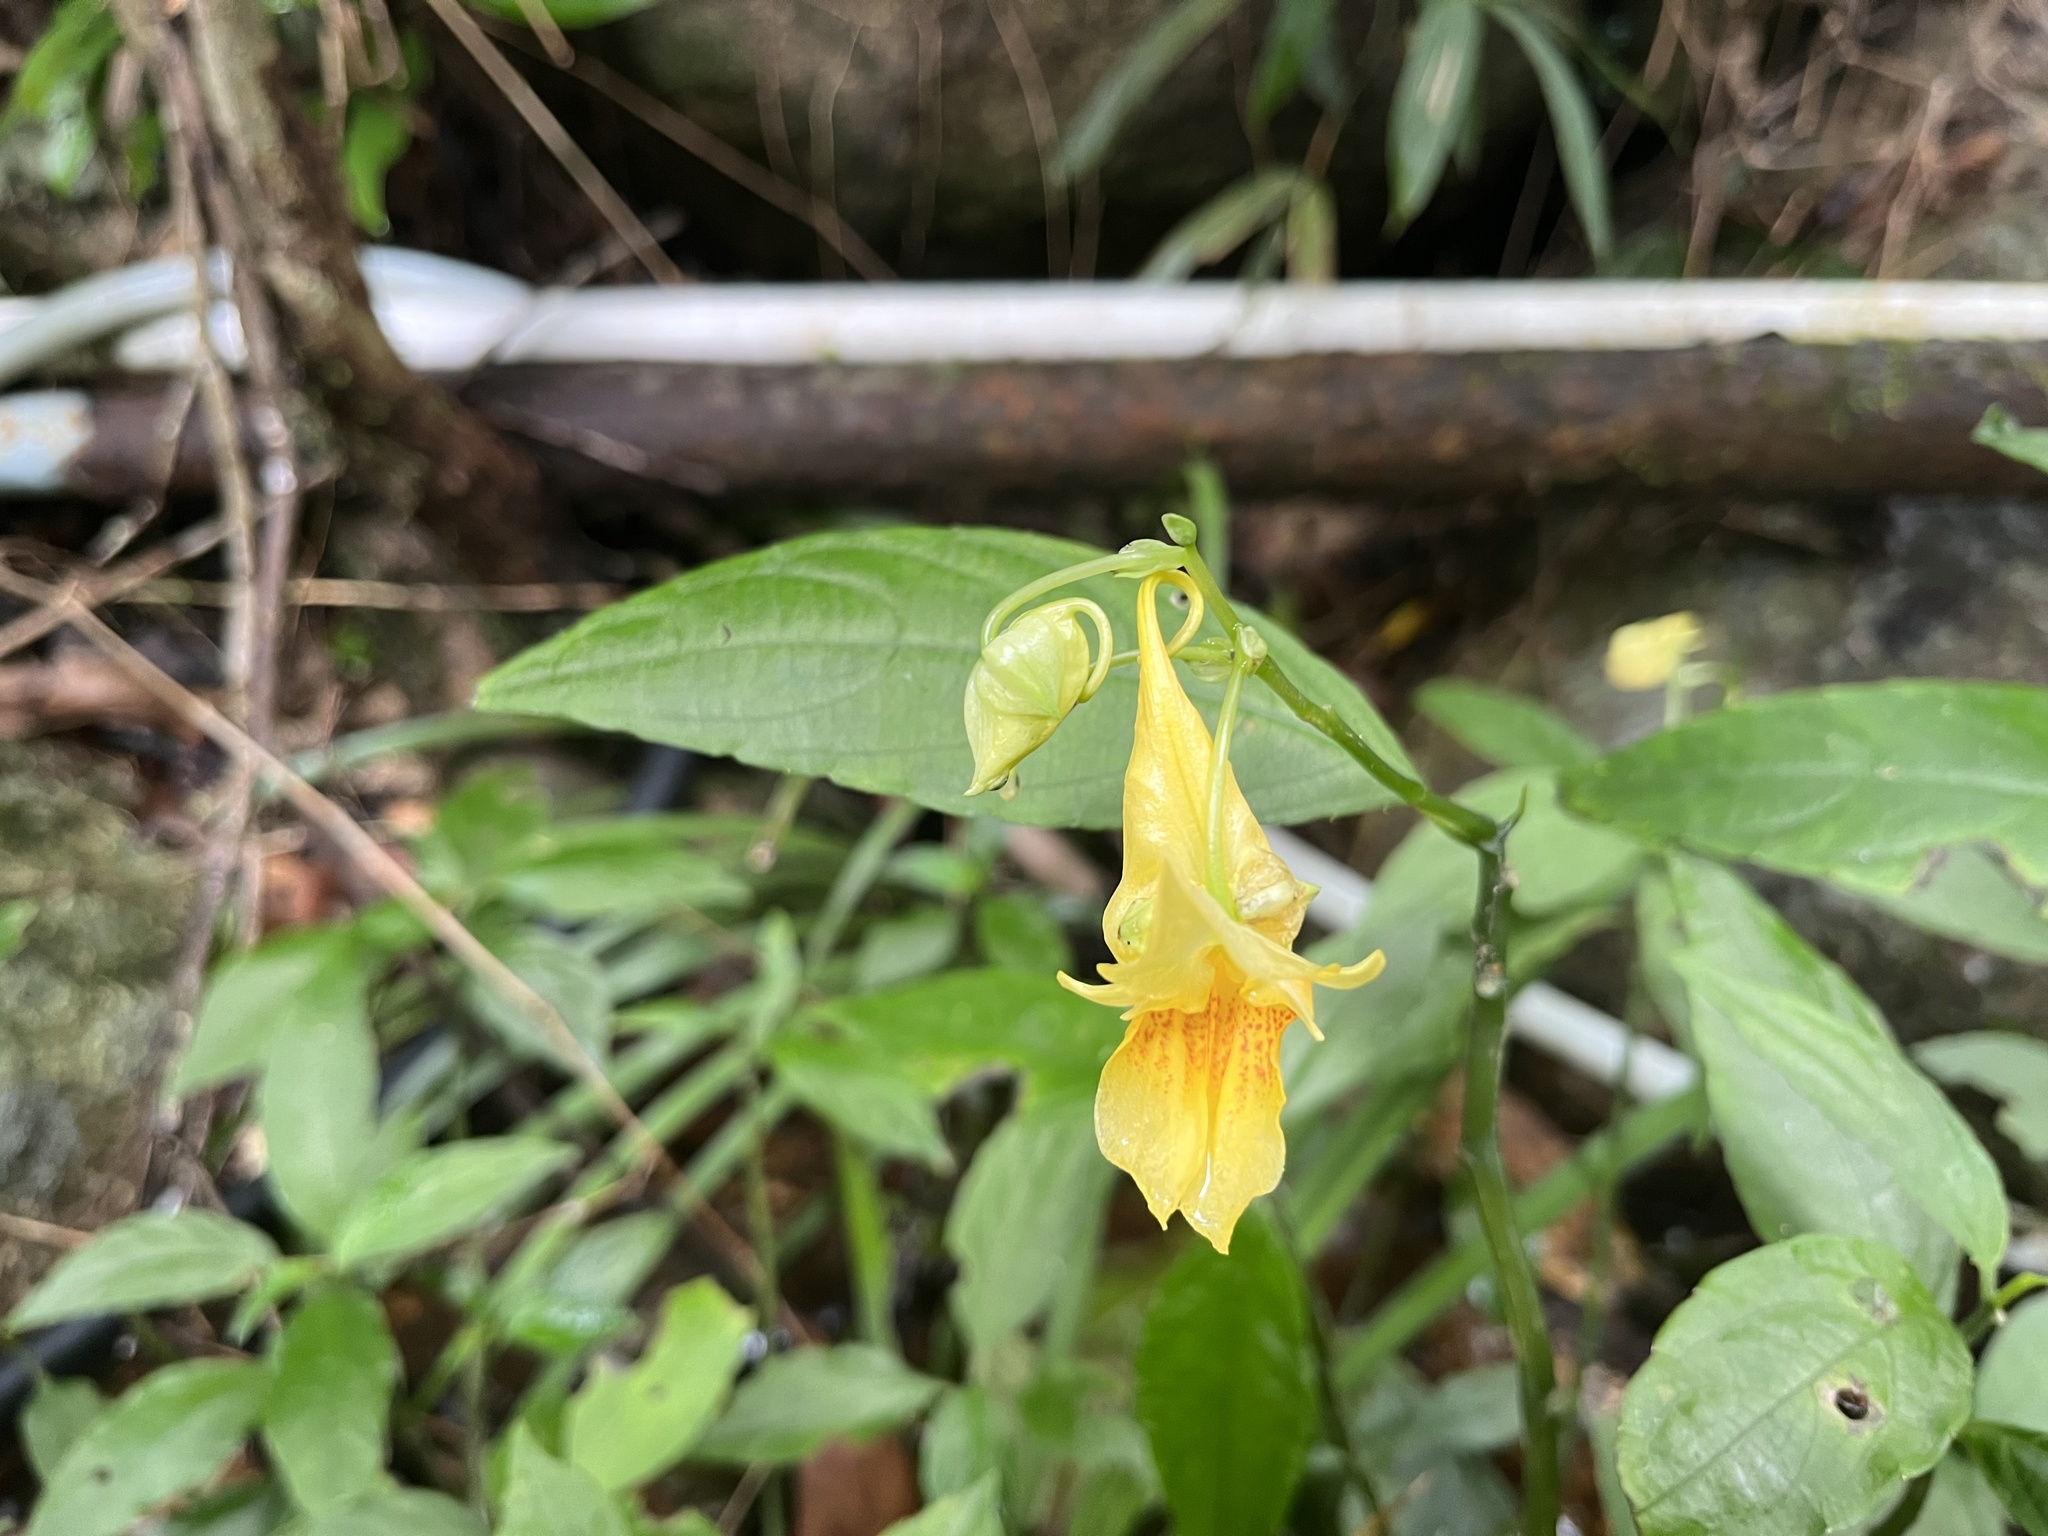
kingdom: Plantae
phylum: Tracheophyta
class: Magnoliopsida
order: Ericales
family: Balsaminaceae
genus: Impatiens
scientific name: Impatiens hongkongensis
